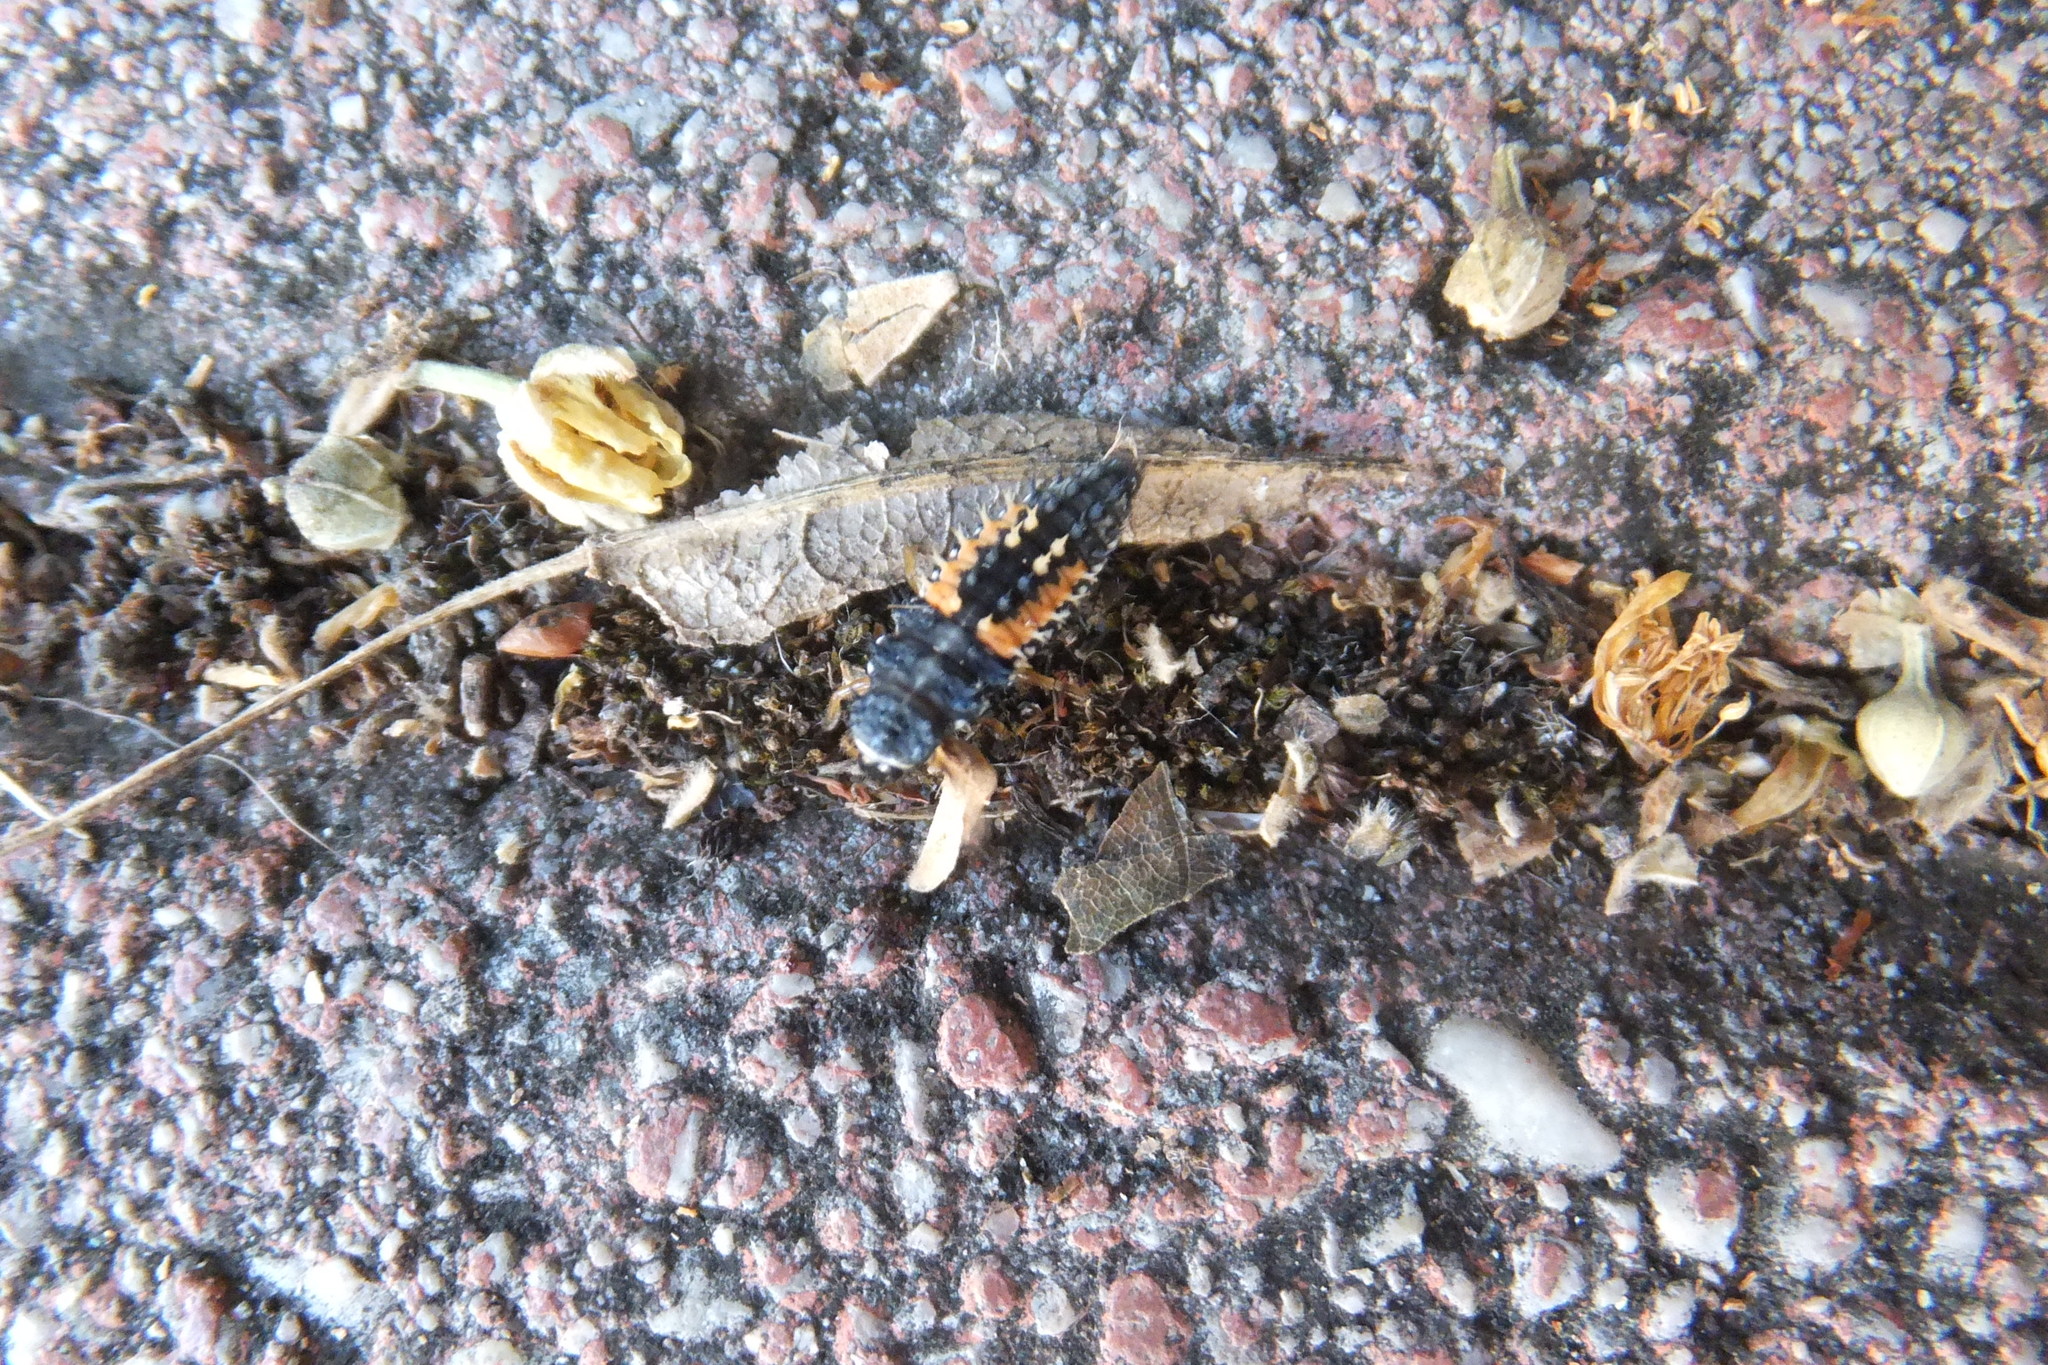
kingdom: Animalia
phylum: Arthropoda
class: Insecta
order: Coleoptera
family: Coccinellidae
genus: Harmonia
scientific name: Harmonia axyridis
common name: Harlequin ladybird
